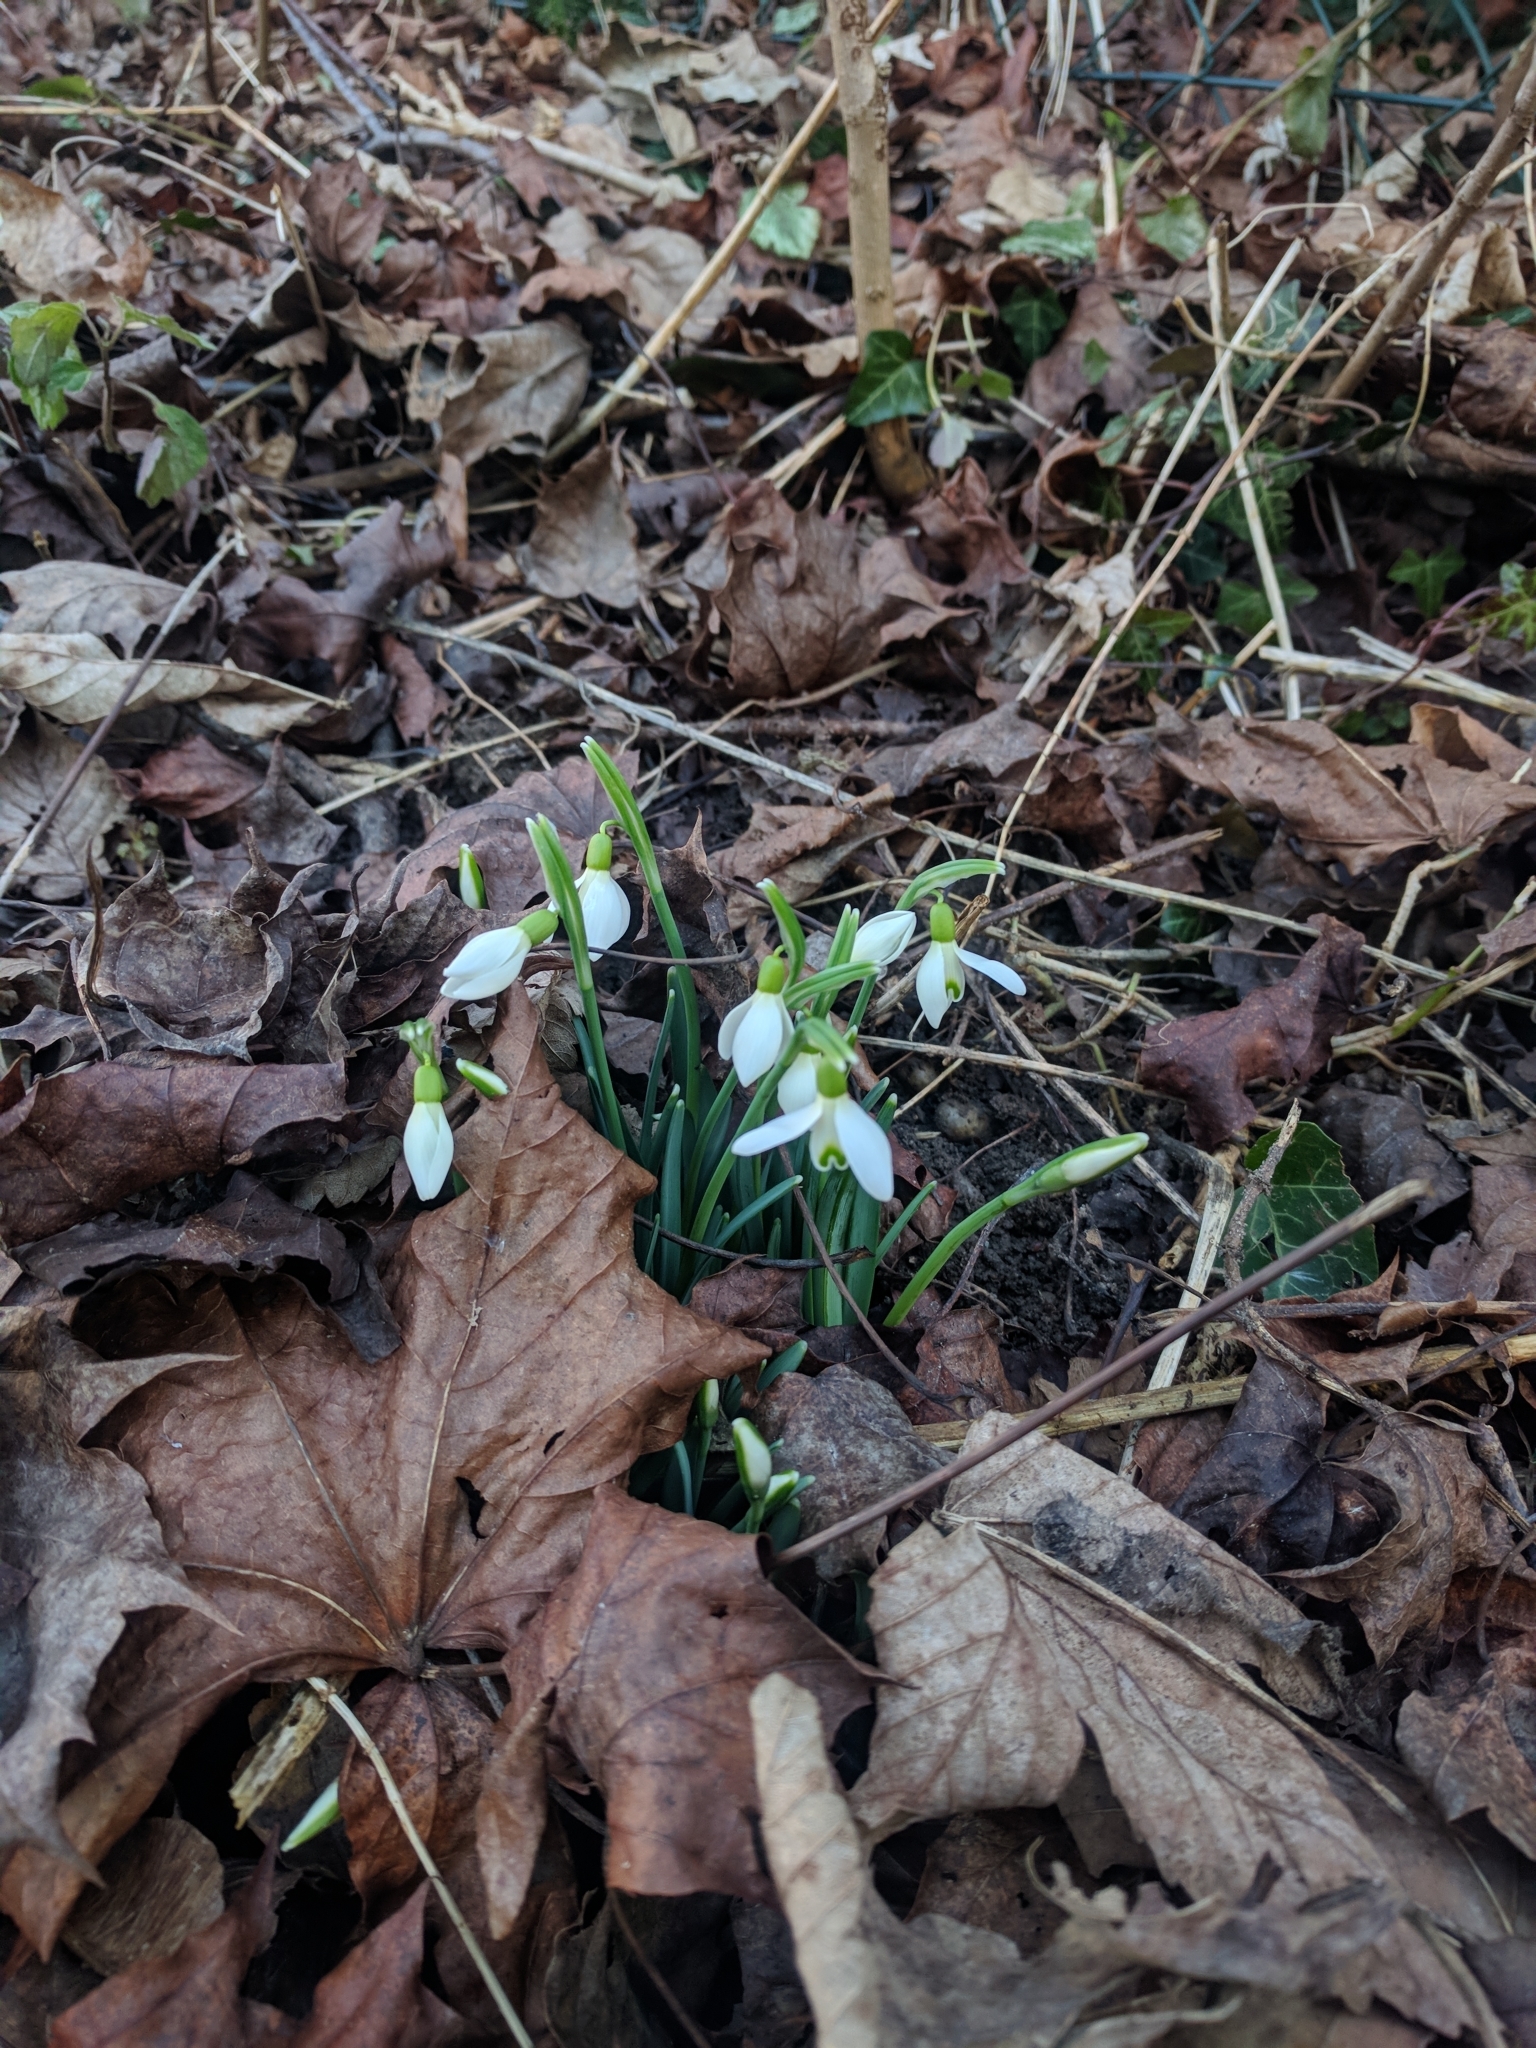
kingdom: Plantae
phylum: Tracheophyta
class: Liliopsida
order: Asparagales
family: Amaryllidaceae
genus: Galanthus
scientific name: Galanthus nivalis
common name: Snowdrop
